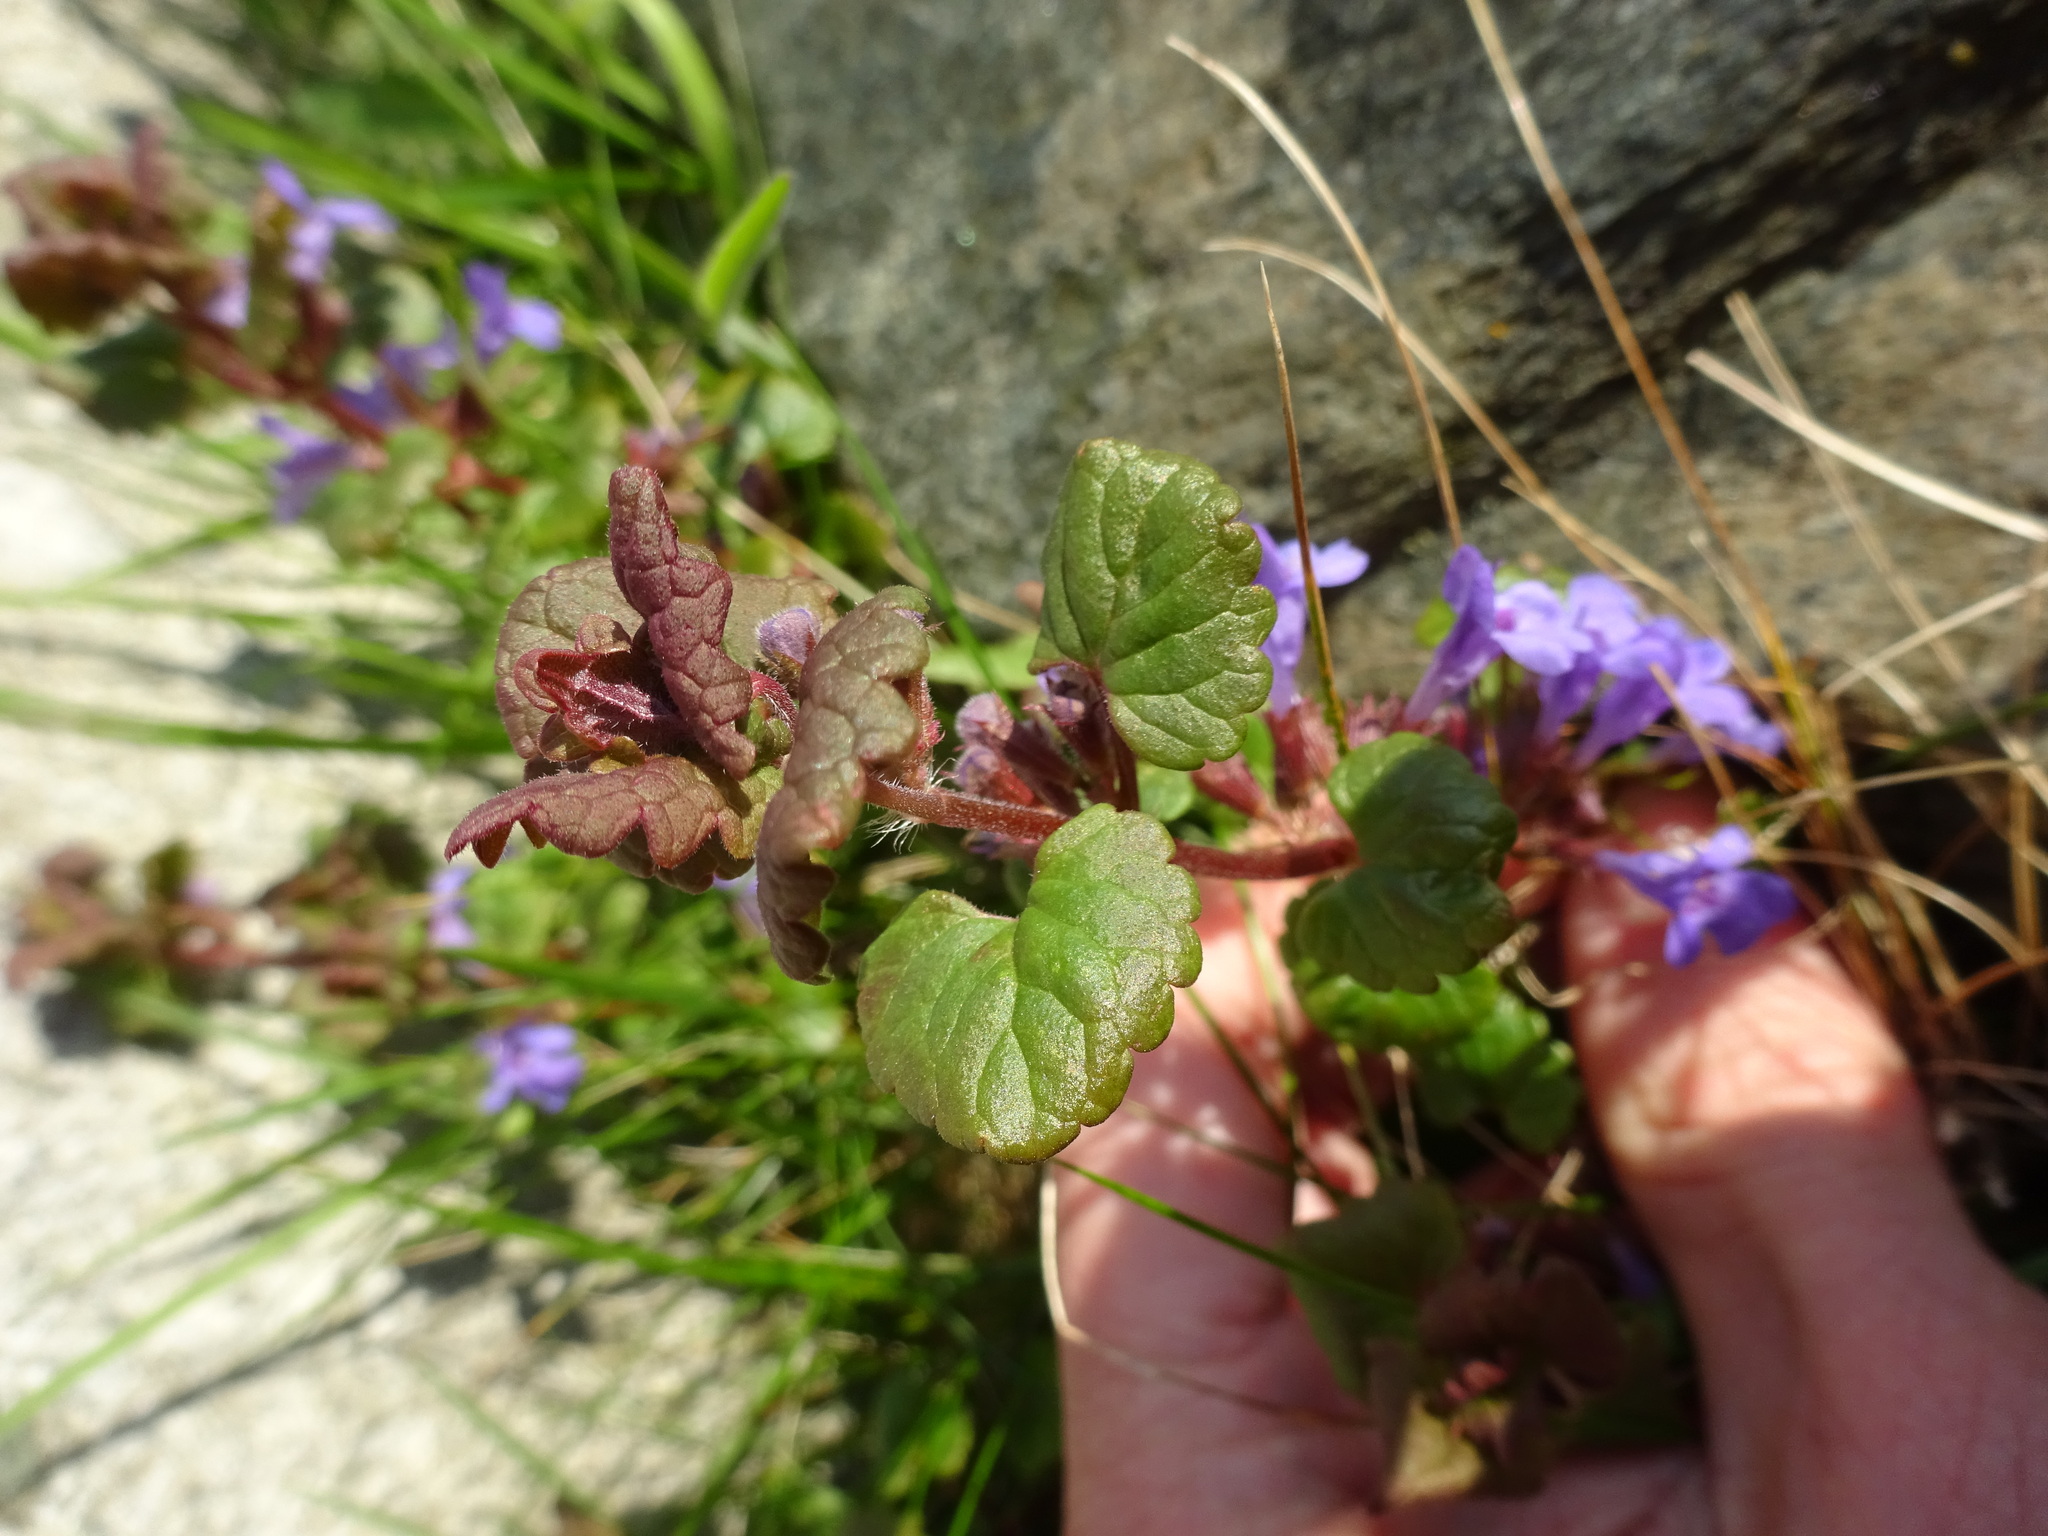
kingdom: Plantae
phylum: Tracheophyta
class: Magnoliopsida
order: Lamiales
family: Lamiaceae
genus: Glechoma
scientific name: Glechoma hederacea
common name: Ground ivy
